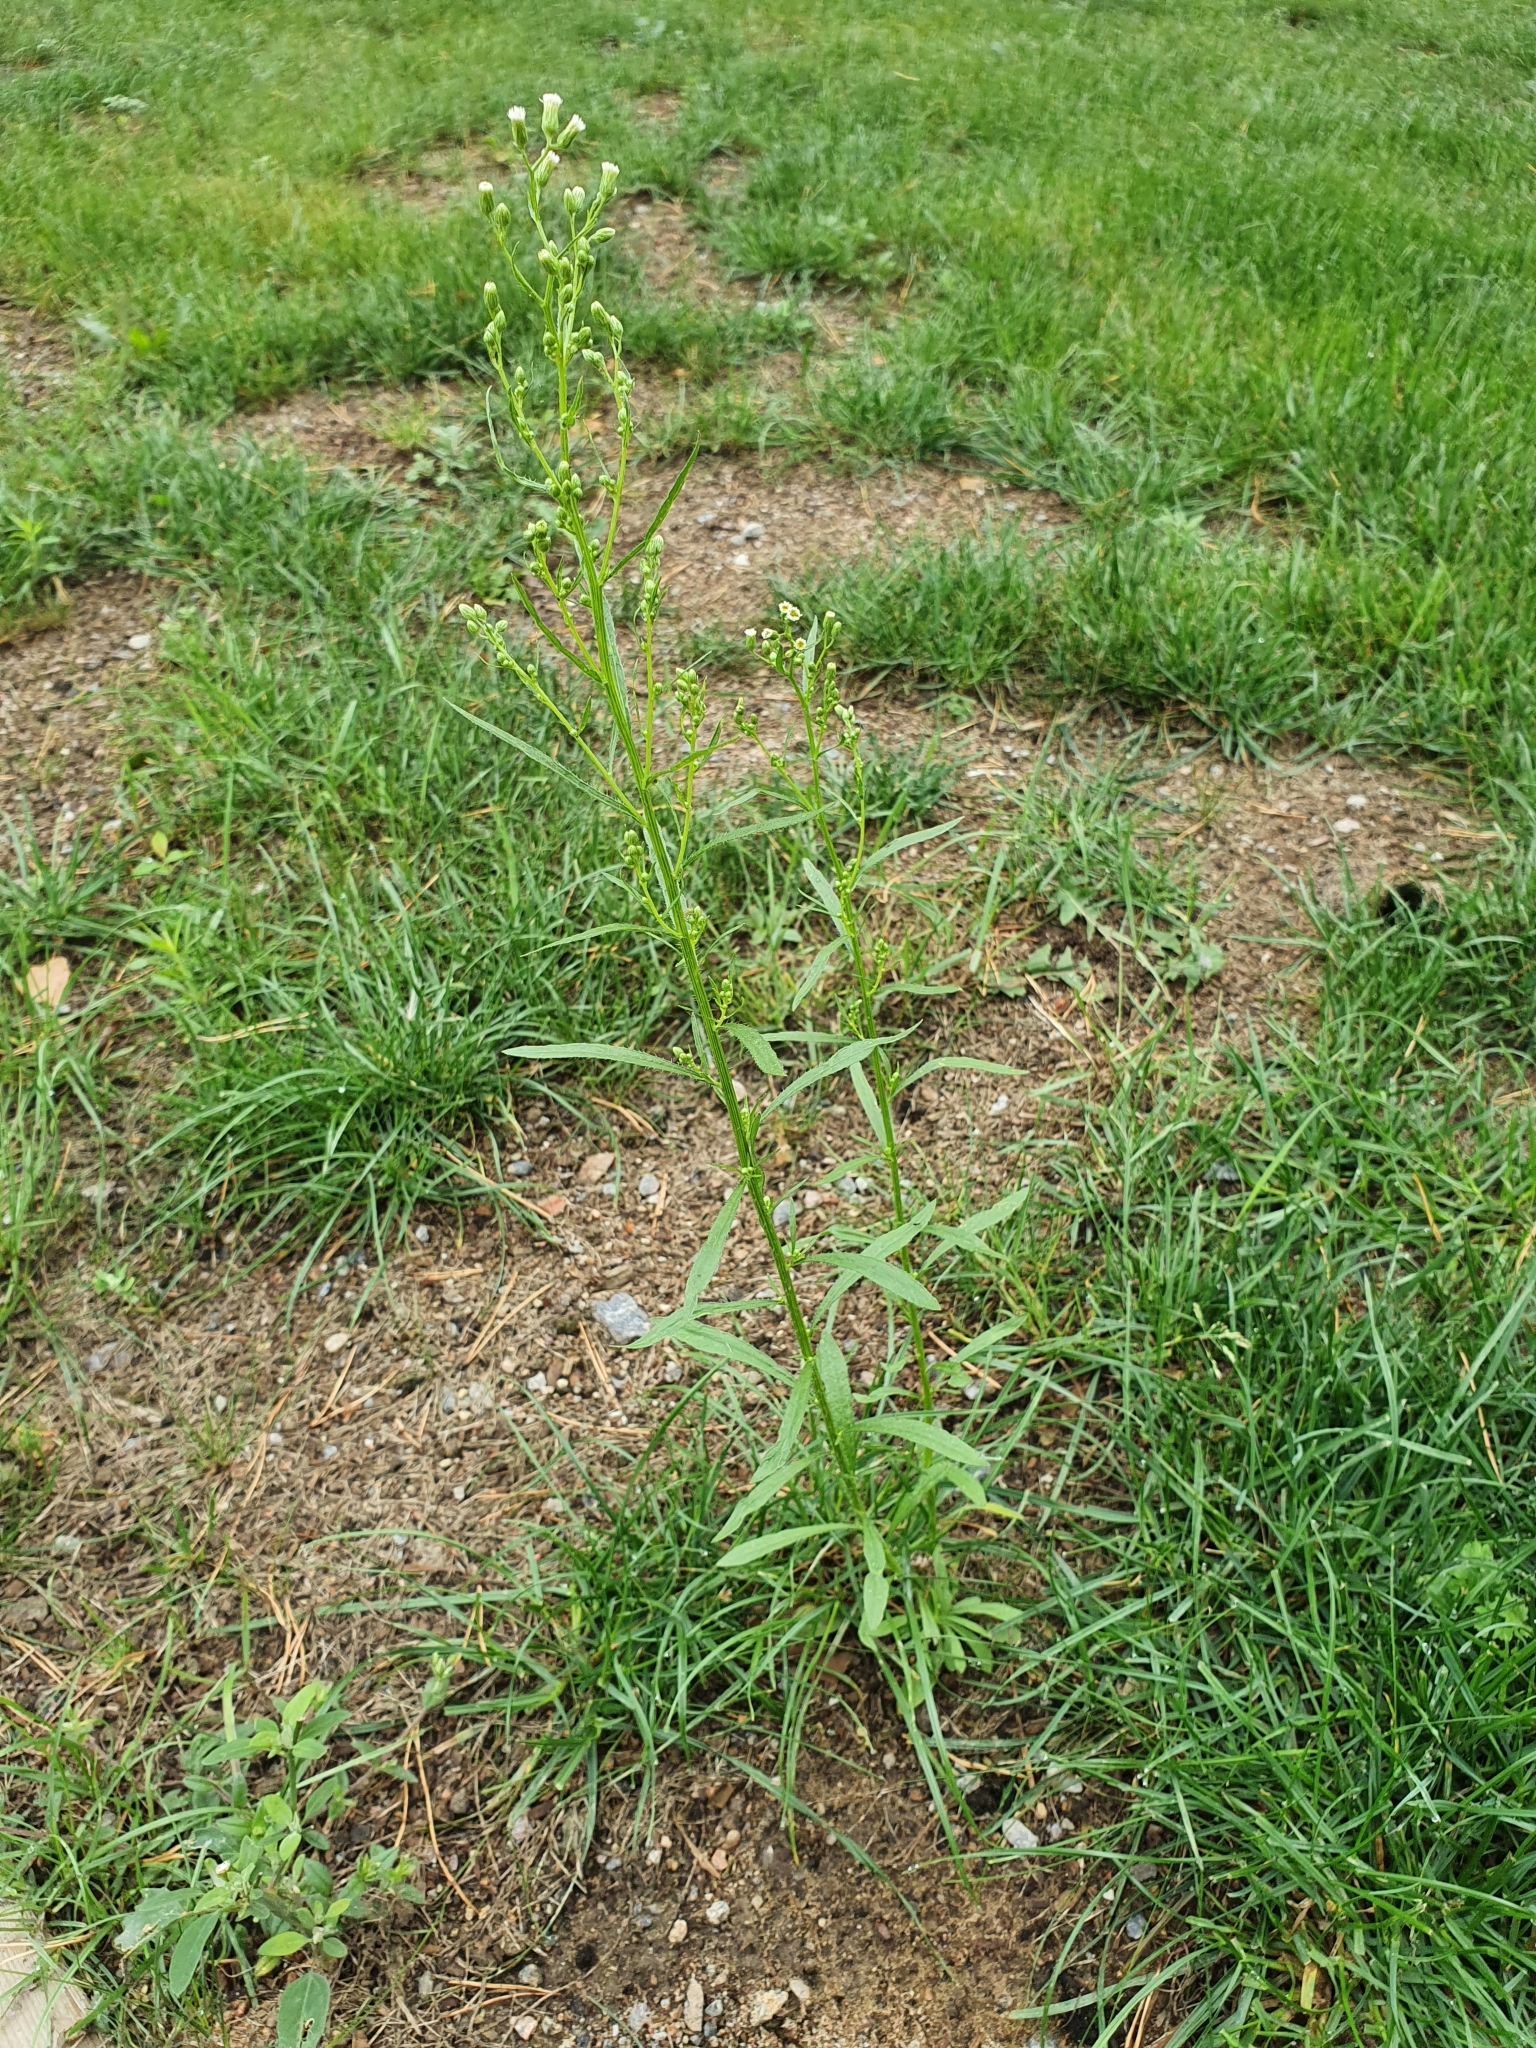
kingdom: Plantae
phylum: Tracheophyta
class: Magnoliopsida
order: Asterales
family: Asteraceae
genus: Erigeron
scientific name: Erigeron canadensis
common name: Canadian fleabane
